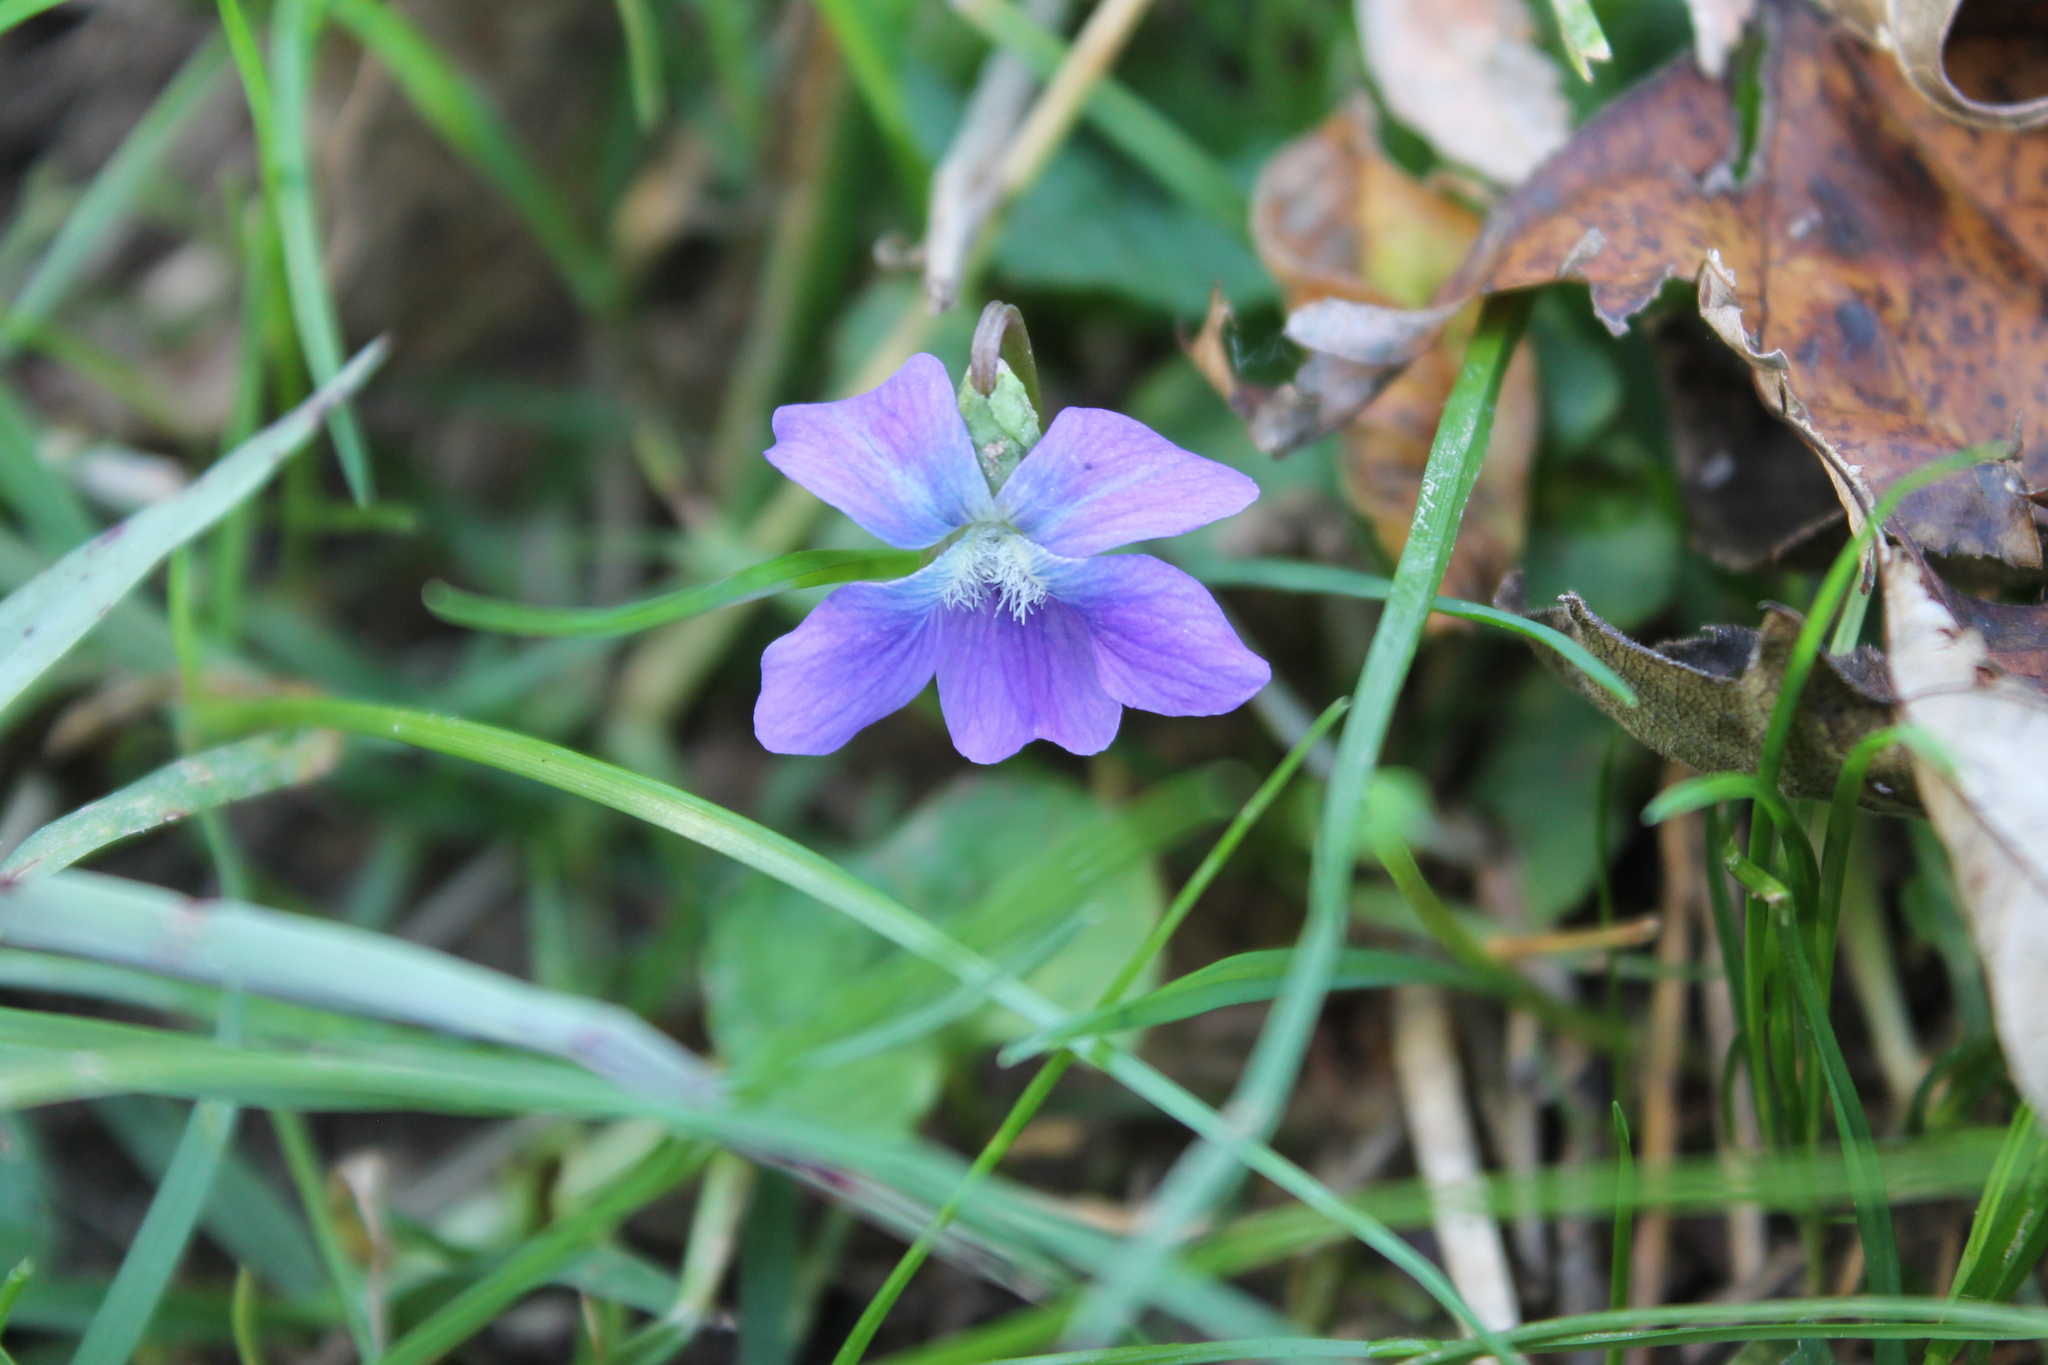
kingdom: Plantae
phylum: Tracheophyta
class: Magnoliopsida
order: Malpighiales
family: Violaceae
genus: Viola
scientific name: Viola sororia
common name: Dooryard violet
